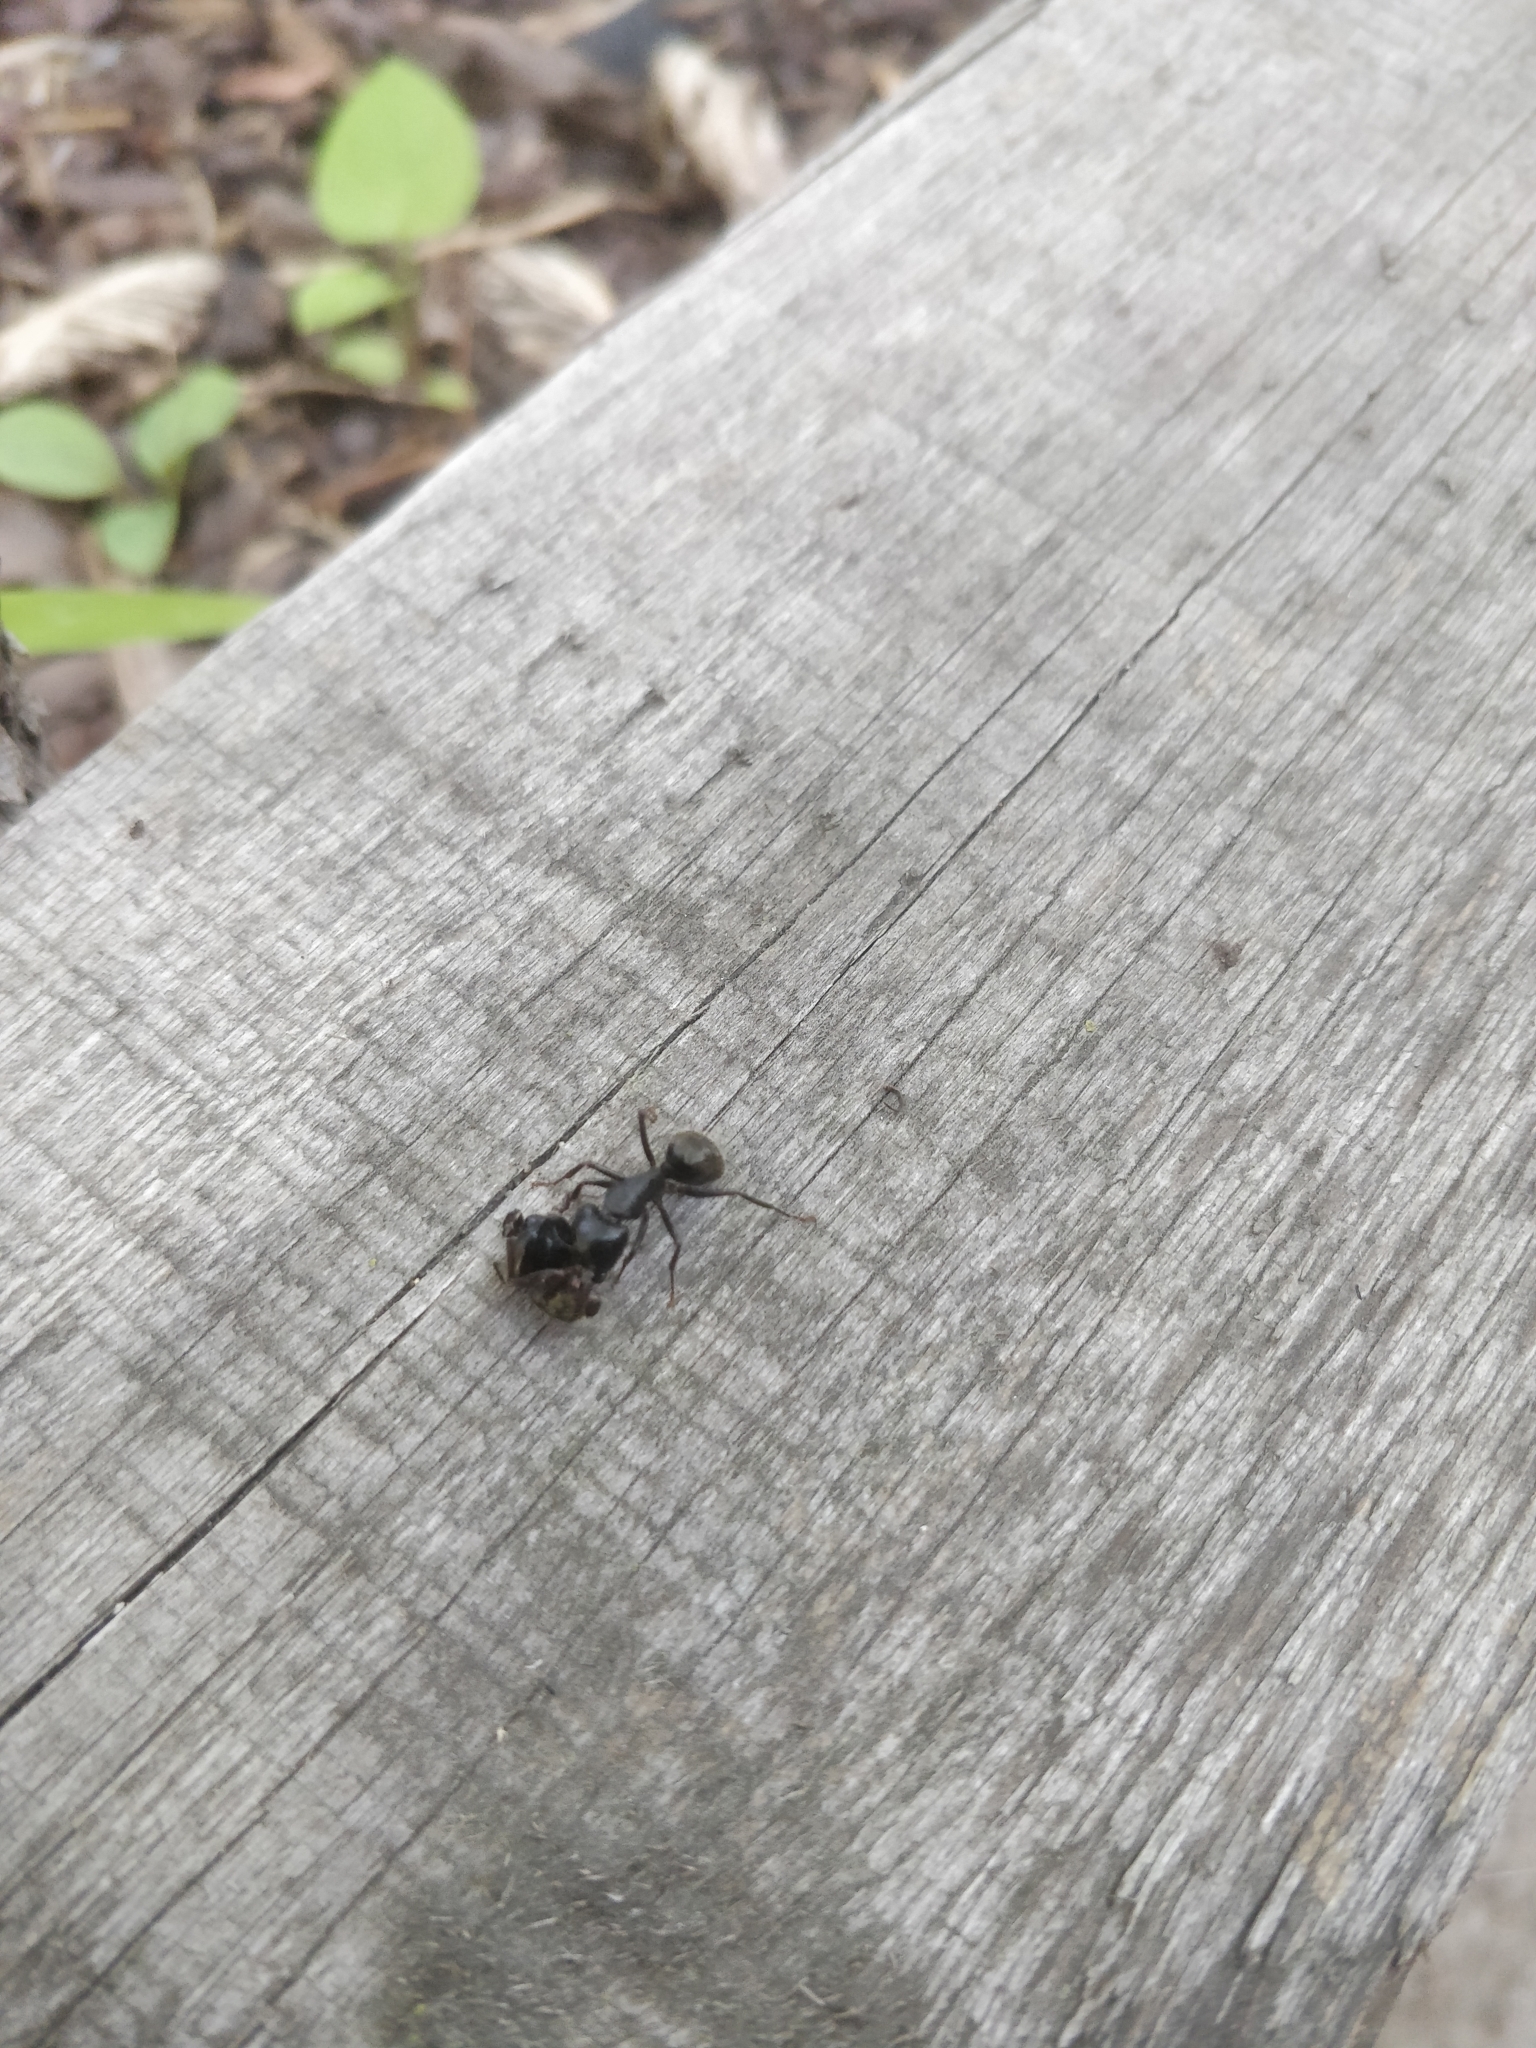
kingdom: Animalia
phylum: Arthropoda
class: Insecta
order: Hymenoptera
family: Formicidae
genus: Camponotus
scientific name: Camponotus pennsylvanicus
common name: Black carpenter ant
